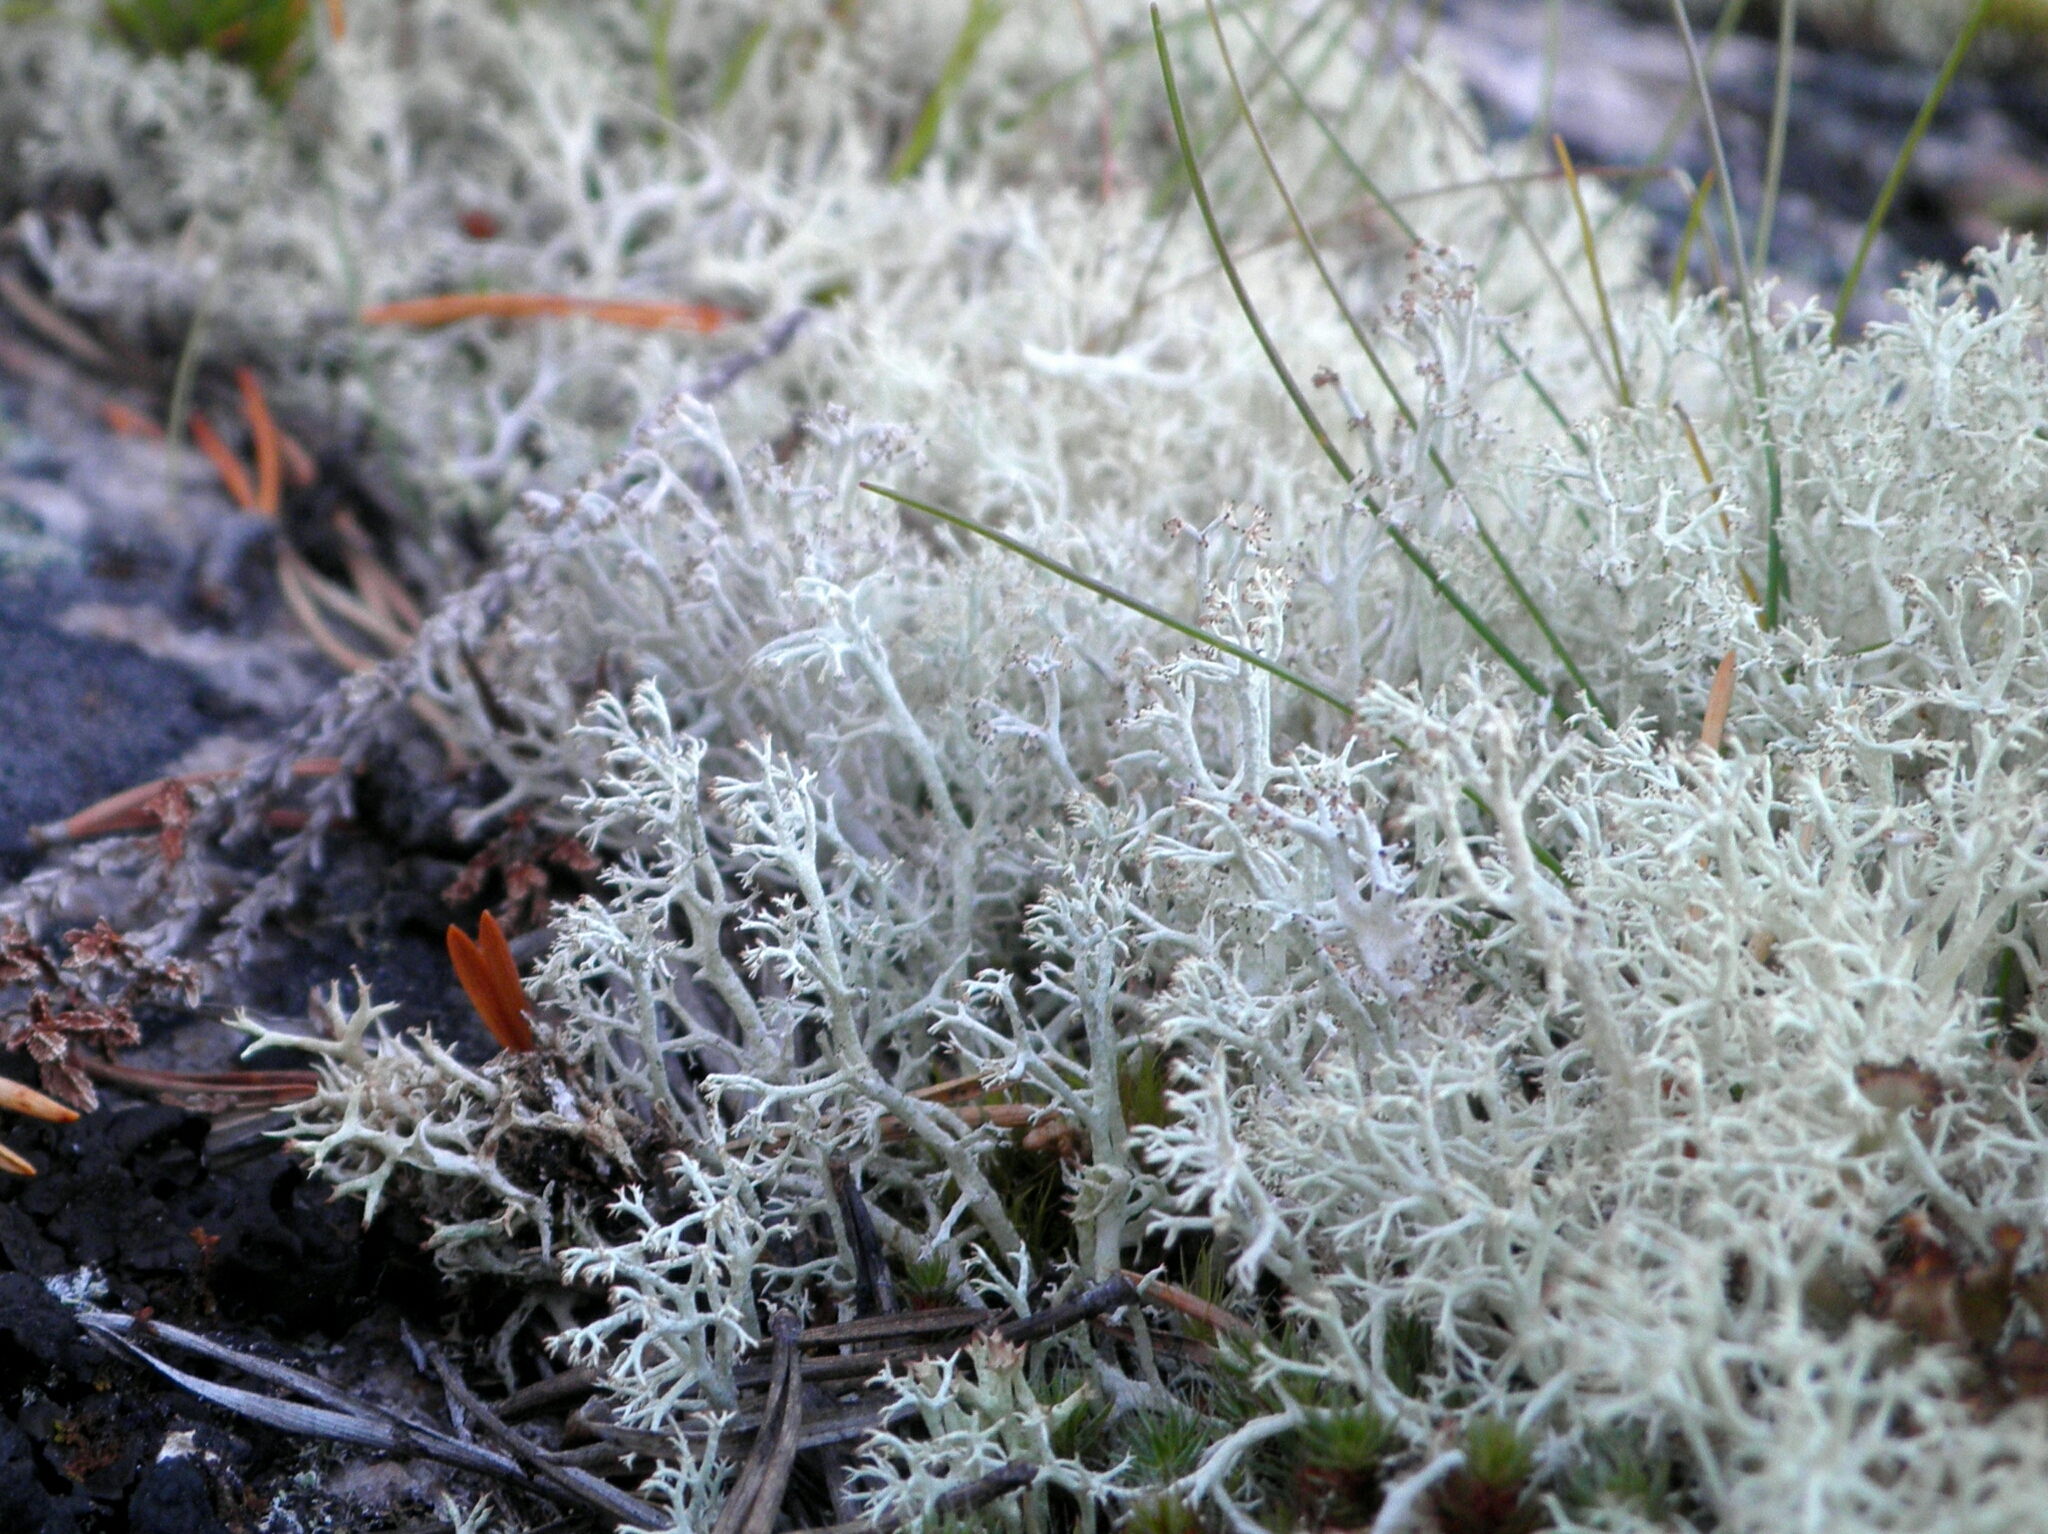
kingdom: Fungi
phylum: Ascomycota
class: Lecanoromycetes
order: Lecanorales
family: Cladoniaceae
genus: Cladonia
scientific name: Cladonia stellaris
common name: Star-tipped reindeer lichen
